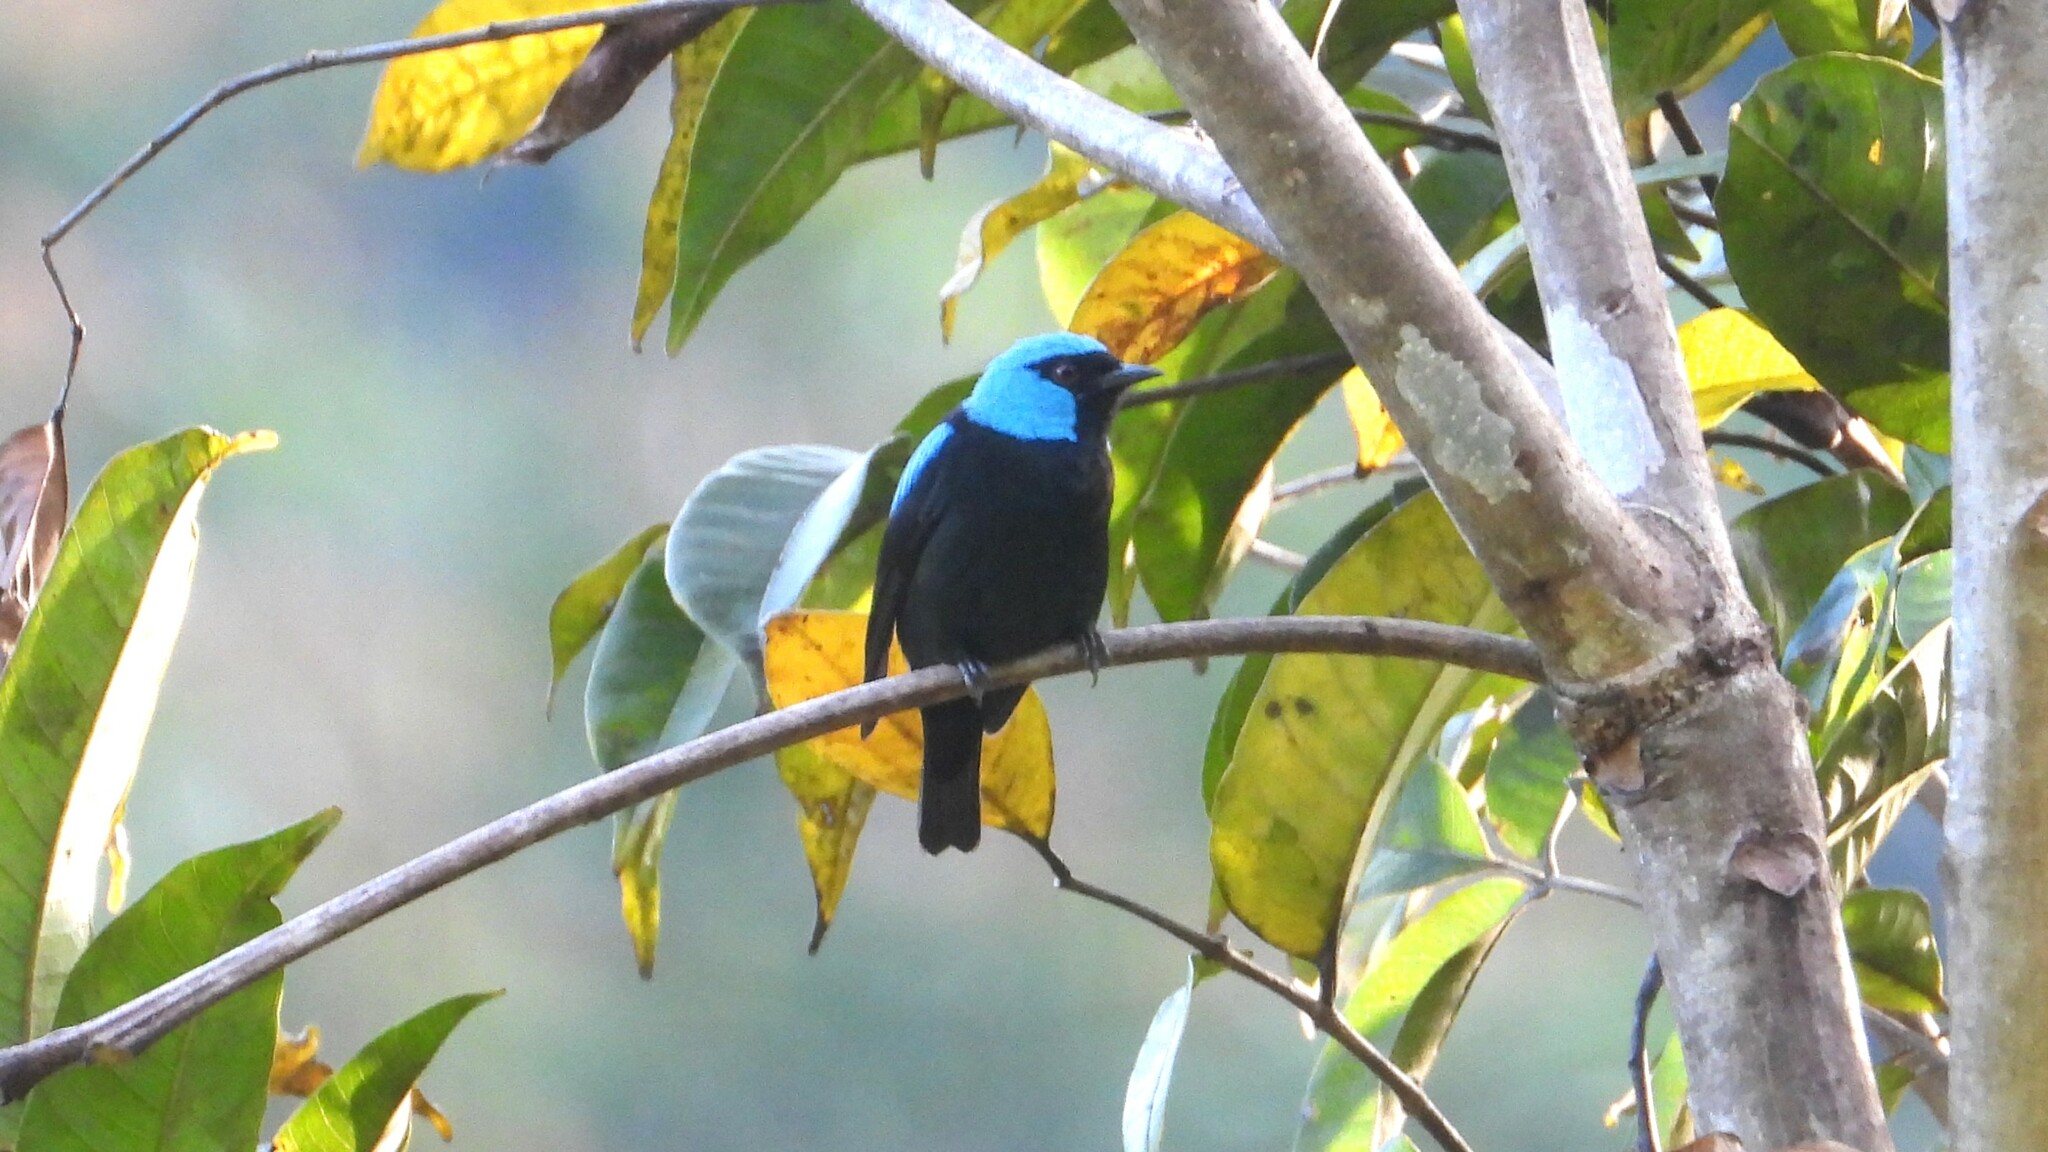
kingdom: Animalia
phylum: Chordata
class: Aves
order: Passeriformes
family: Thraupidae
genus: Dacnis
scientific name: Dacnis venusta
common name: Scarlet-thighed dacnis
